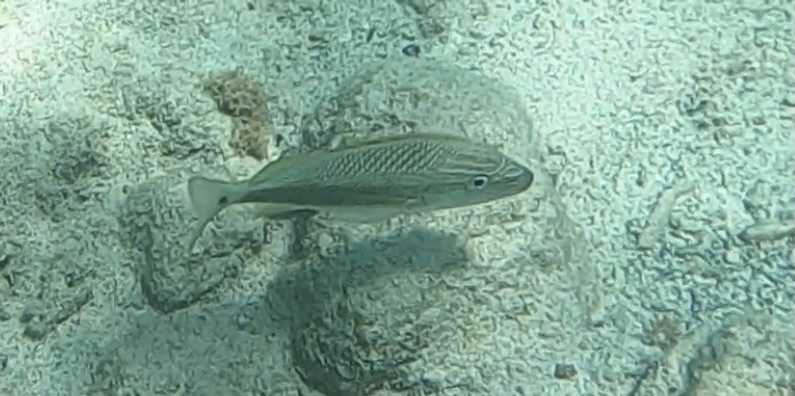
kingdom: Animalia
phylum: Chordata
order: Perciformes
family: Haemulidae
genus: Haemulon
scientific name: Haemulon plumierii
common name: White grunt
